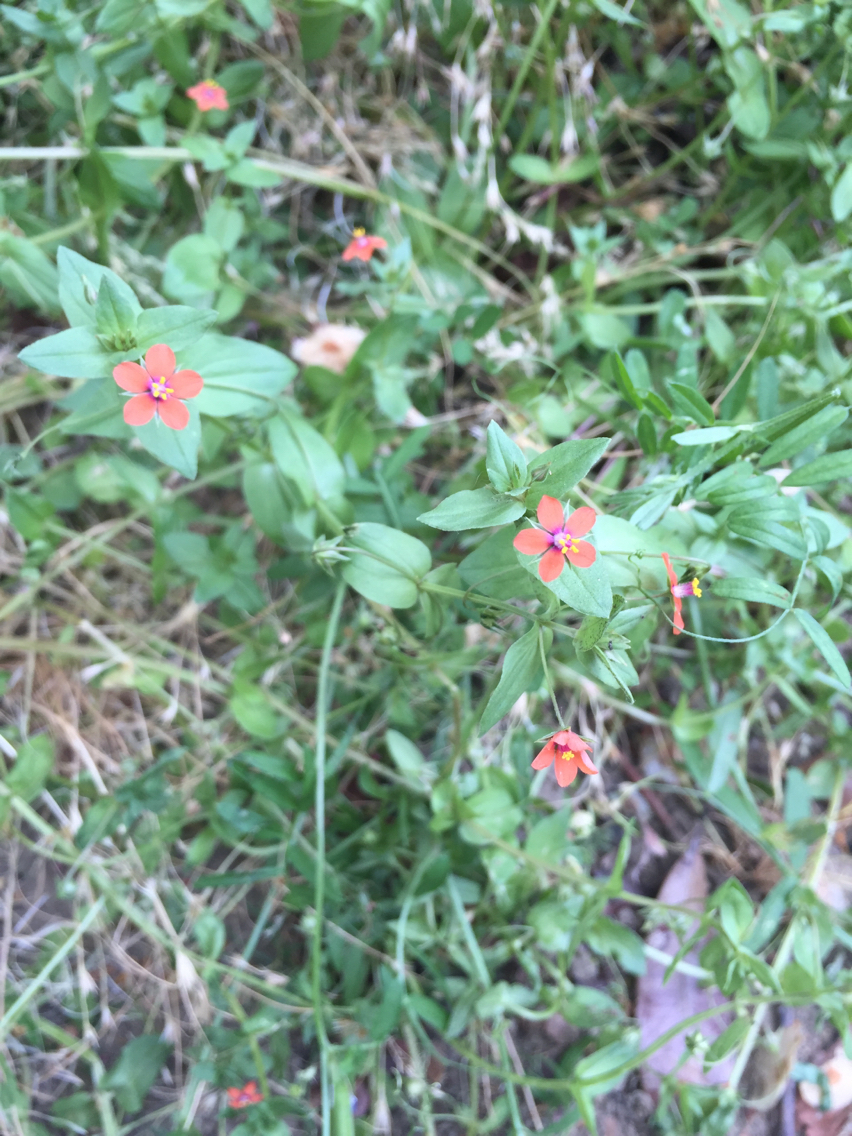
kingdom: Plantae
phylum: Tracheophyta
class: Magnoliopsida
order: Ericales
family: Primulaceae
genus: Lysimachia
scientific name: Lysimachia arvensis
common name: Scarlet pimpernel
